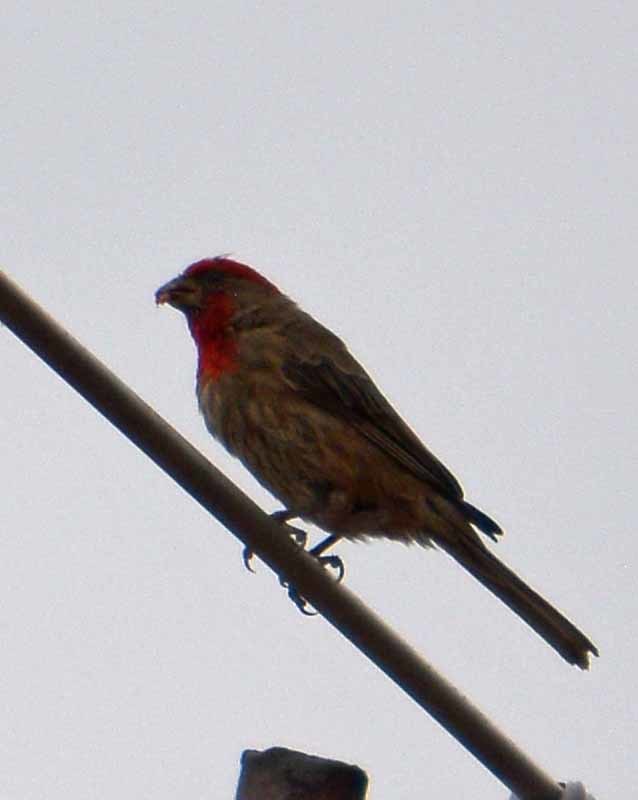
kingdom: Animalia
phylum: Chordata
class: Aves
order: Passeriformes
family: Fringillidae
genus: Haemorhous
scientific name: Haemorhous mexicanus
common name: House finch
